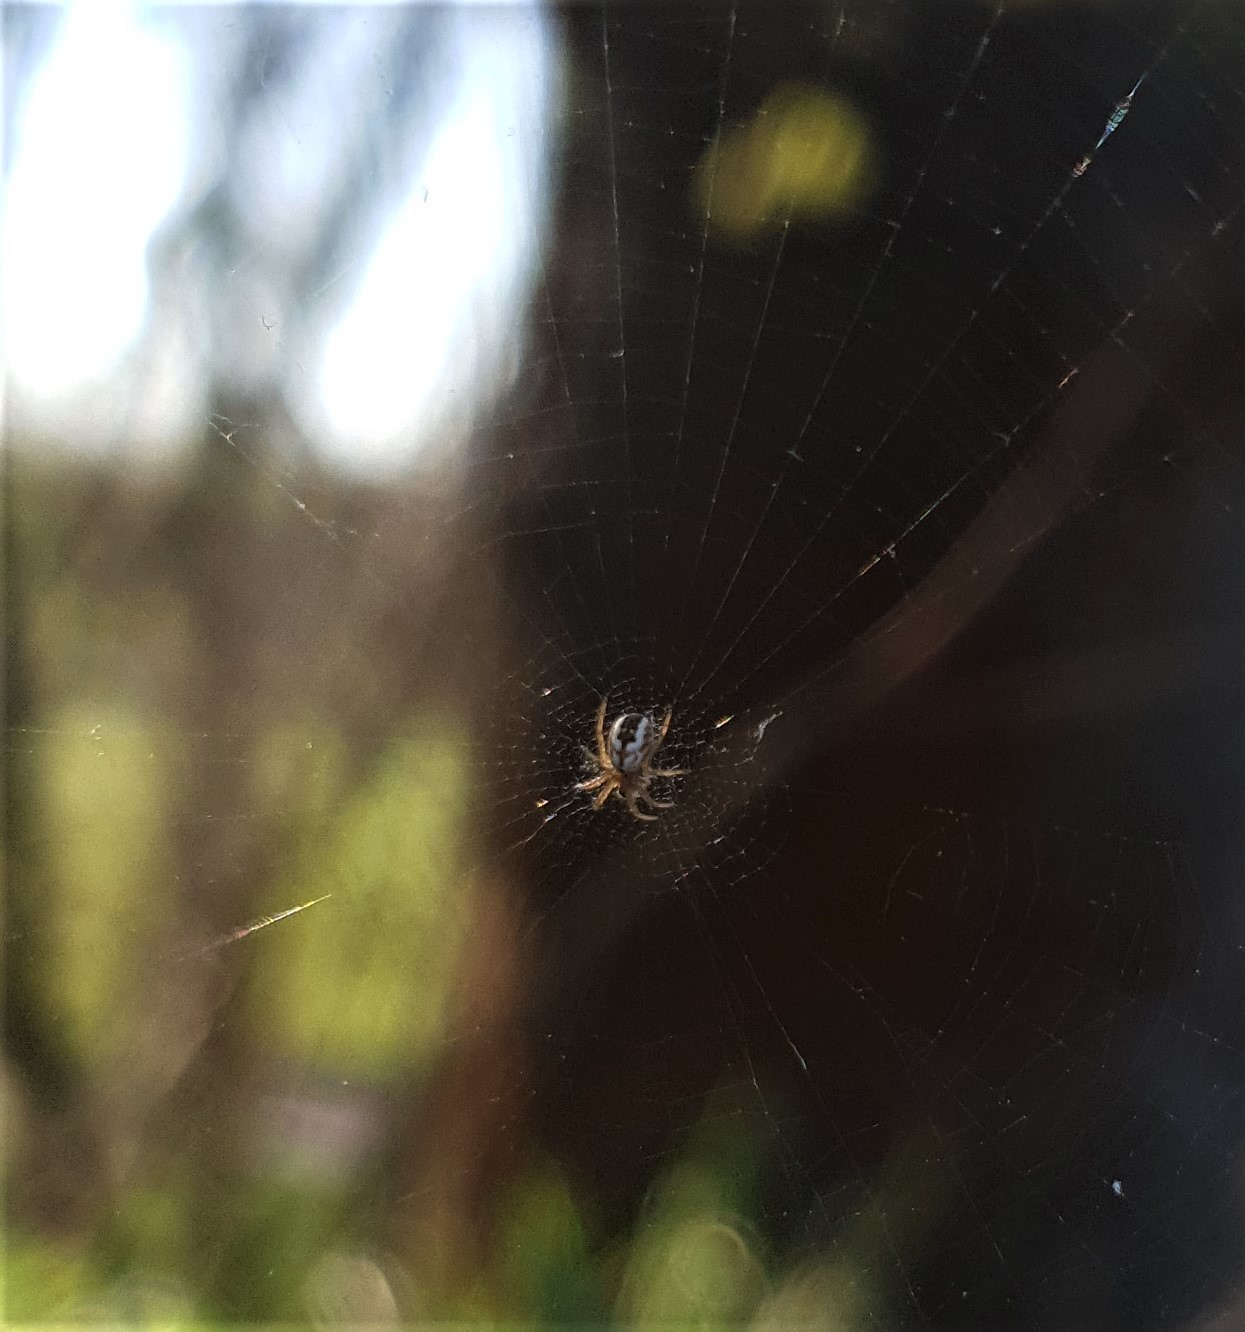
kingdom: Animalia
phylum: Arthropoda
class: Arachnida
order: Araneae
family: Araneidae
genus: Mangora
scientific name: Mangora acalypha
